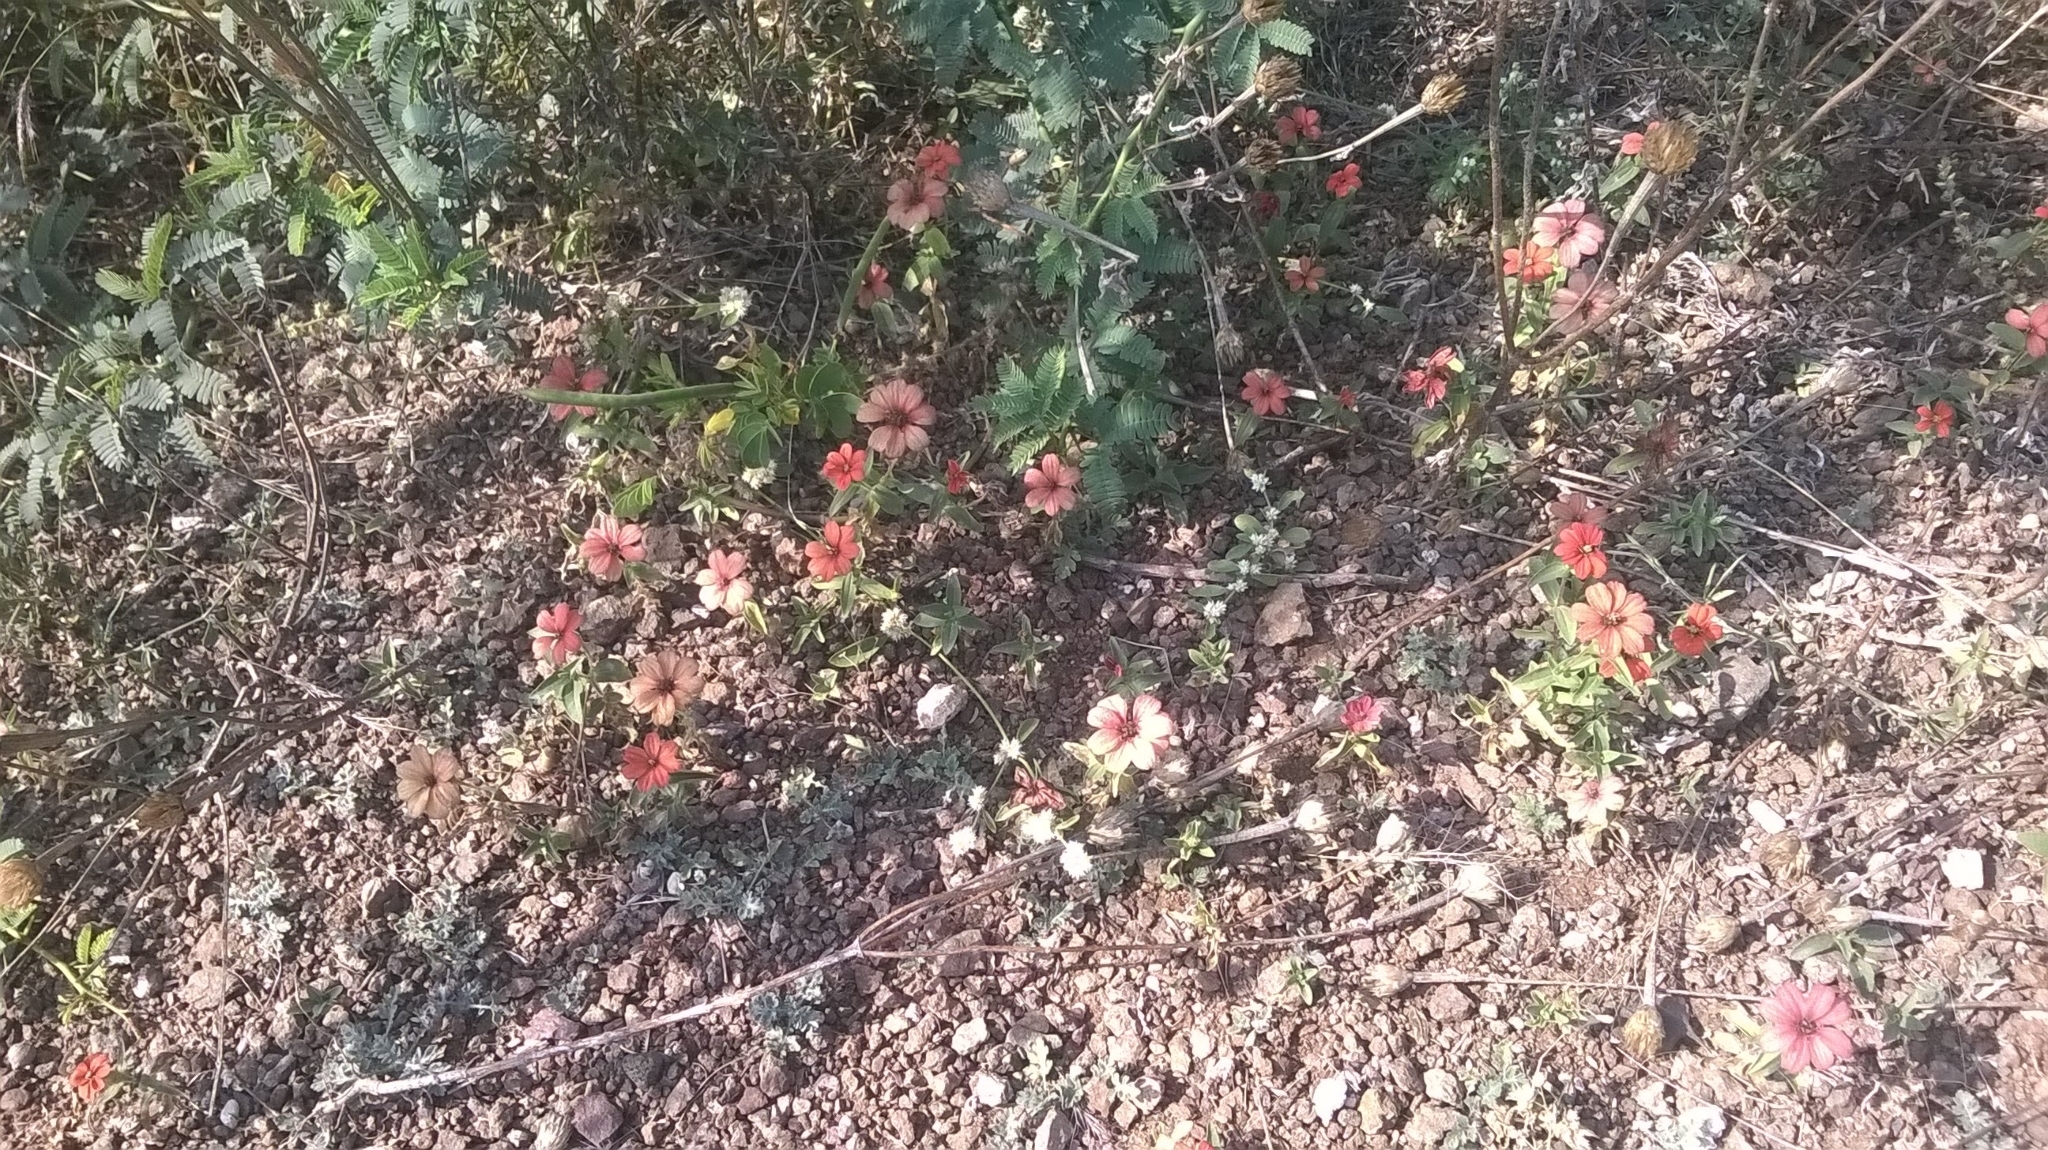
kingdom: Plantae
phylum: Tracheophyta
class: Magnoliopsida
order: Asterales
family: Asteraceae
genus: Zinnia
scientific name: Zinnia peruviana
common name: Peruvian zinnia
